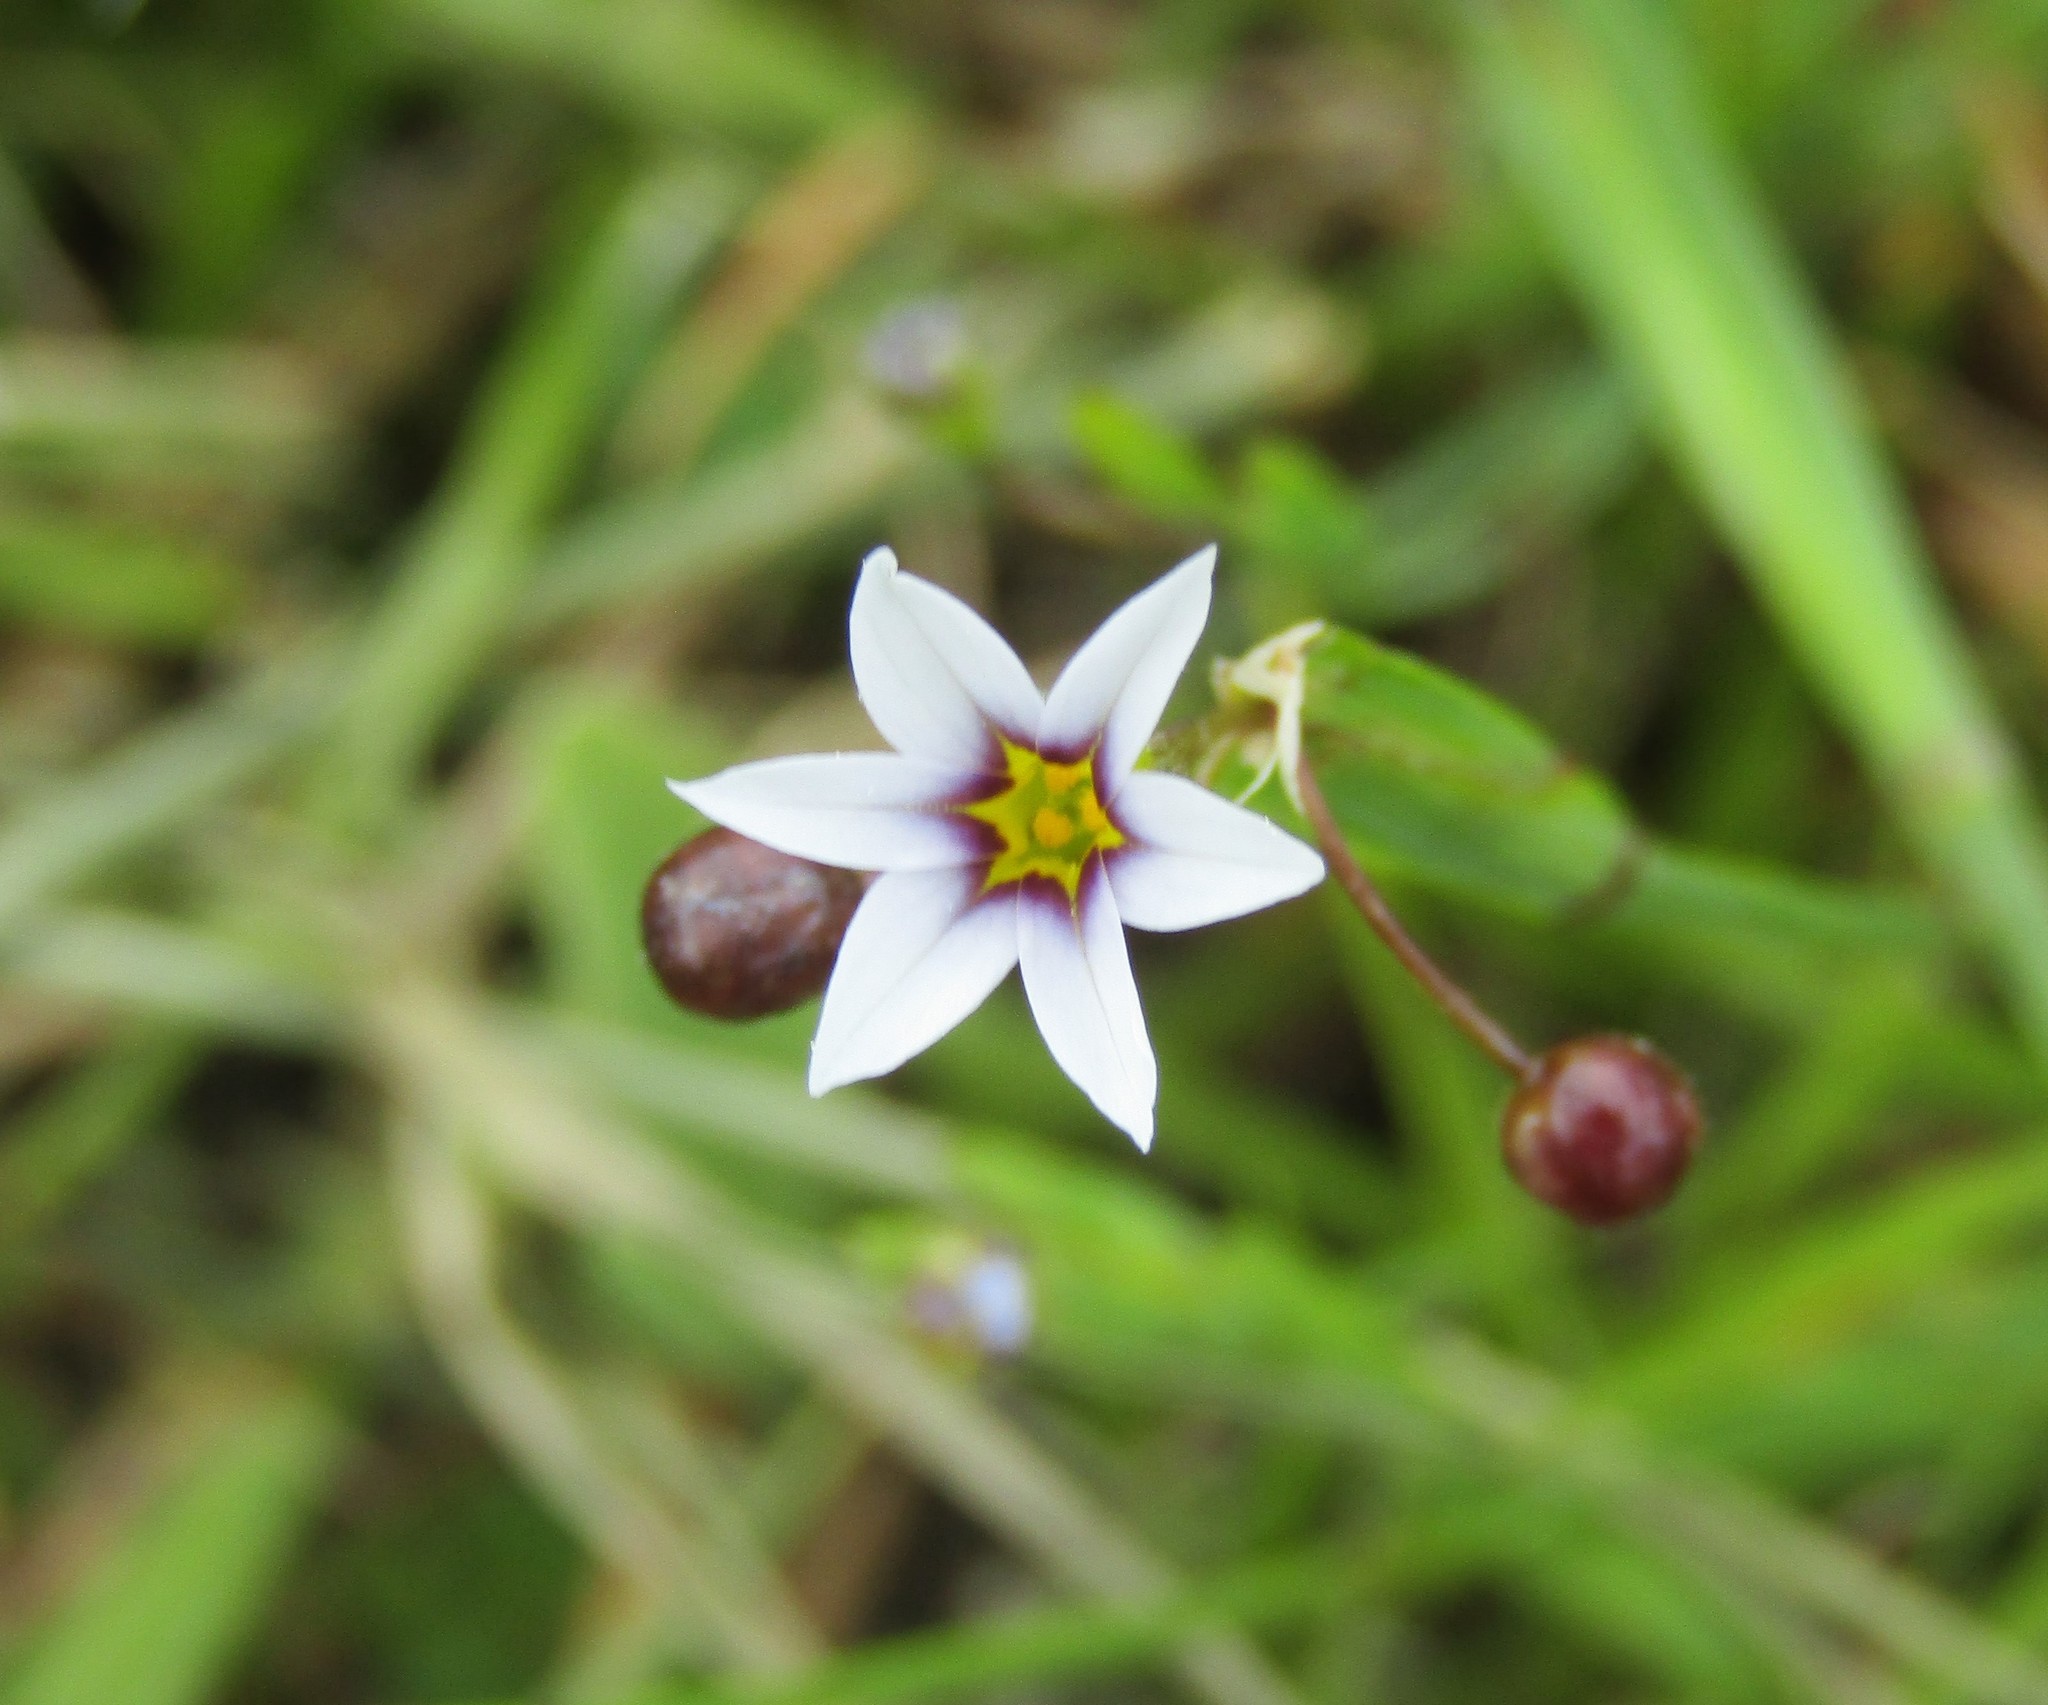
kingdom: Plantae
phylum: Tracheophyta
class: Liliopsida
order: Asparagales
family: Iridaceae
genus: Sisyrinchium
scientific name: Sisyrinchium micranthum
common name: Bermuda pigroot
